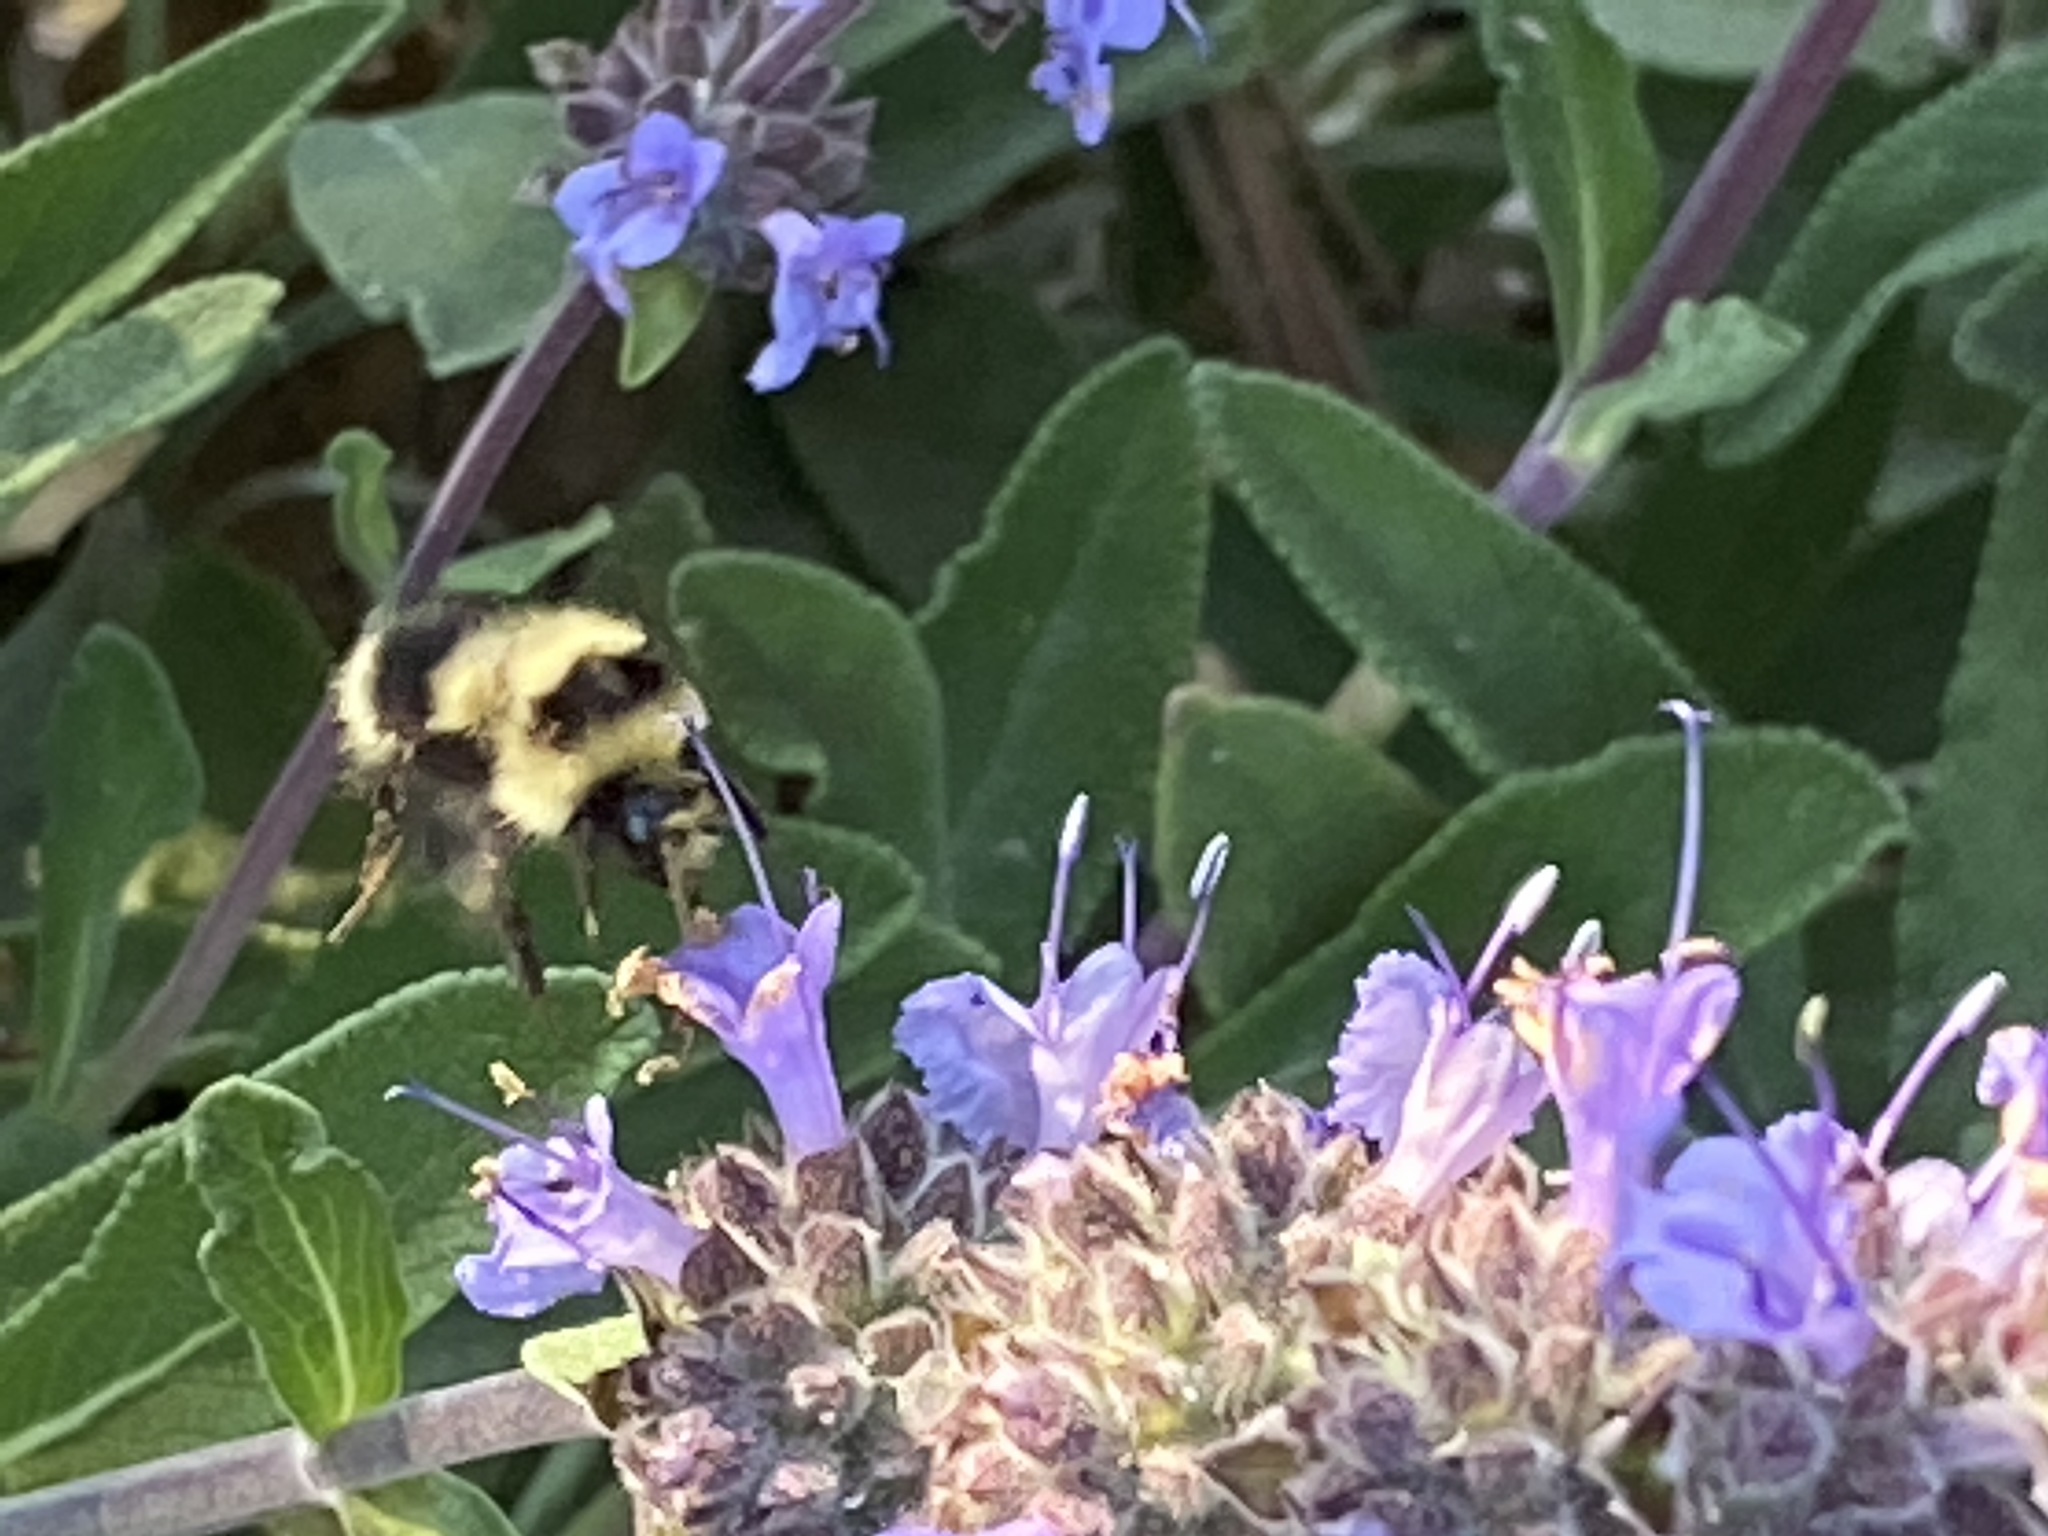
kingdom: Animalia
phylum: Arthropoda
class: Insecta
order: Hymenoptera
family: Apidae
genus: Bombus
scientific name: Bombus melanopygus
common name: Black tail bumble bee
